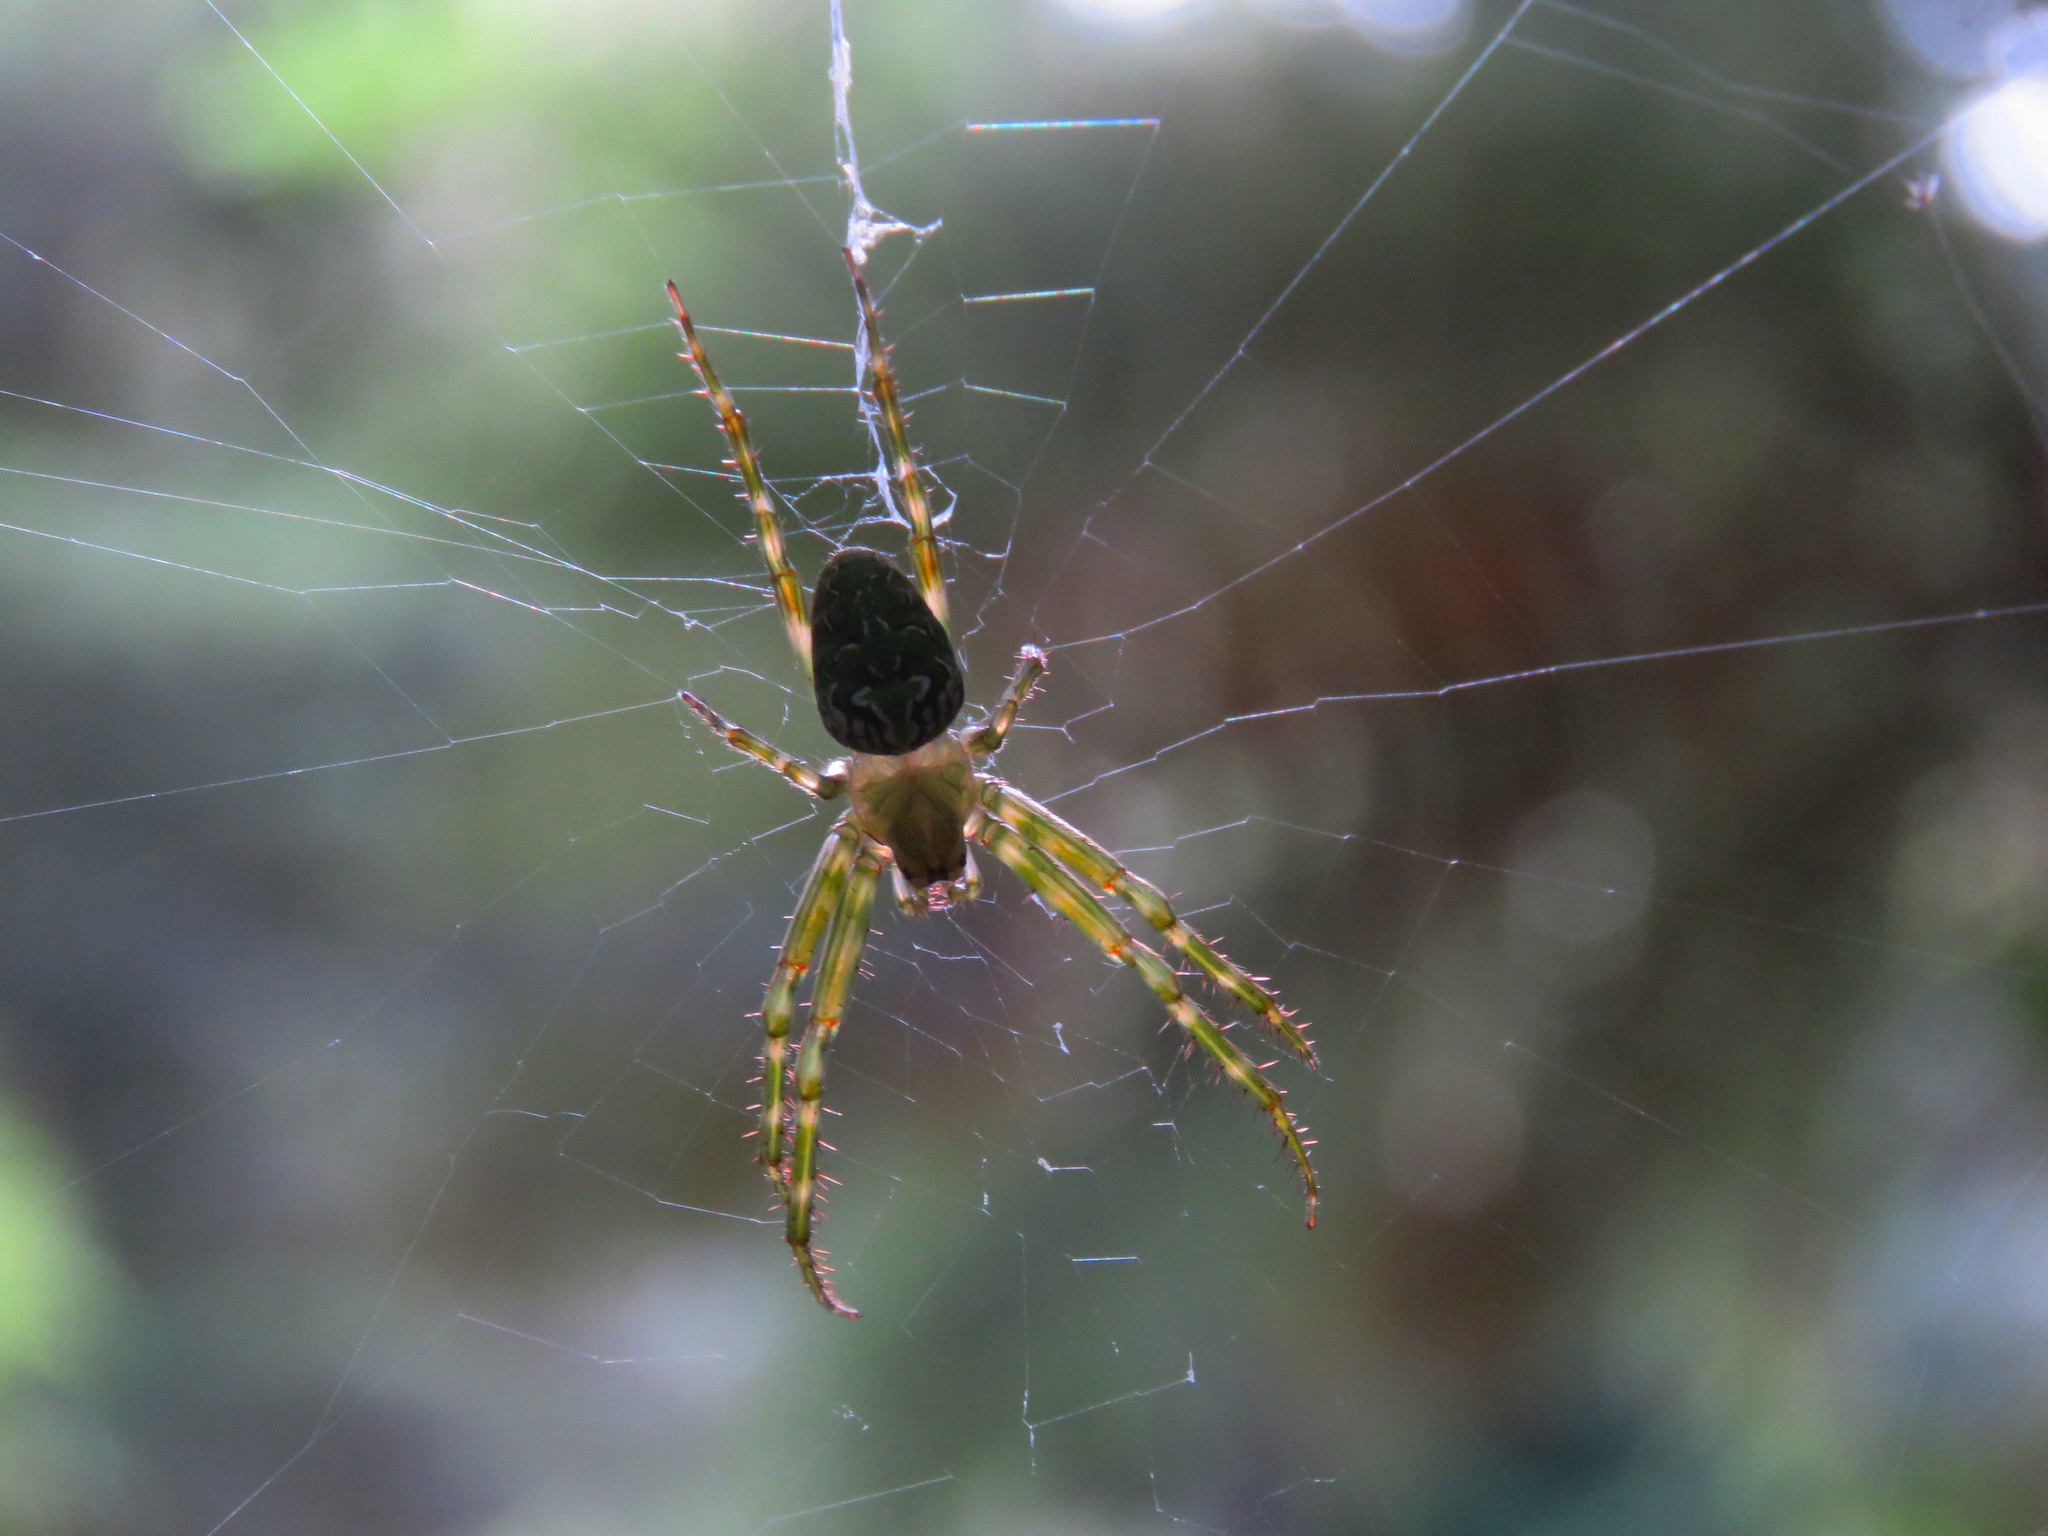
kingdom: Animalia
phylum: Arthropoda
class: Arachnida
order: Araneae
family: Araneidae
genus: Novaranea
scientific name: Novaranea queribunda
